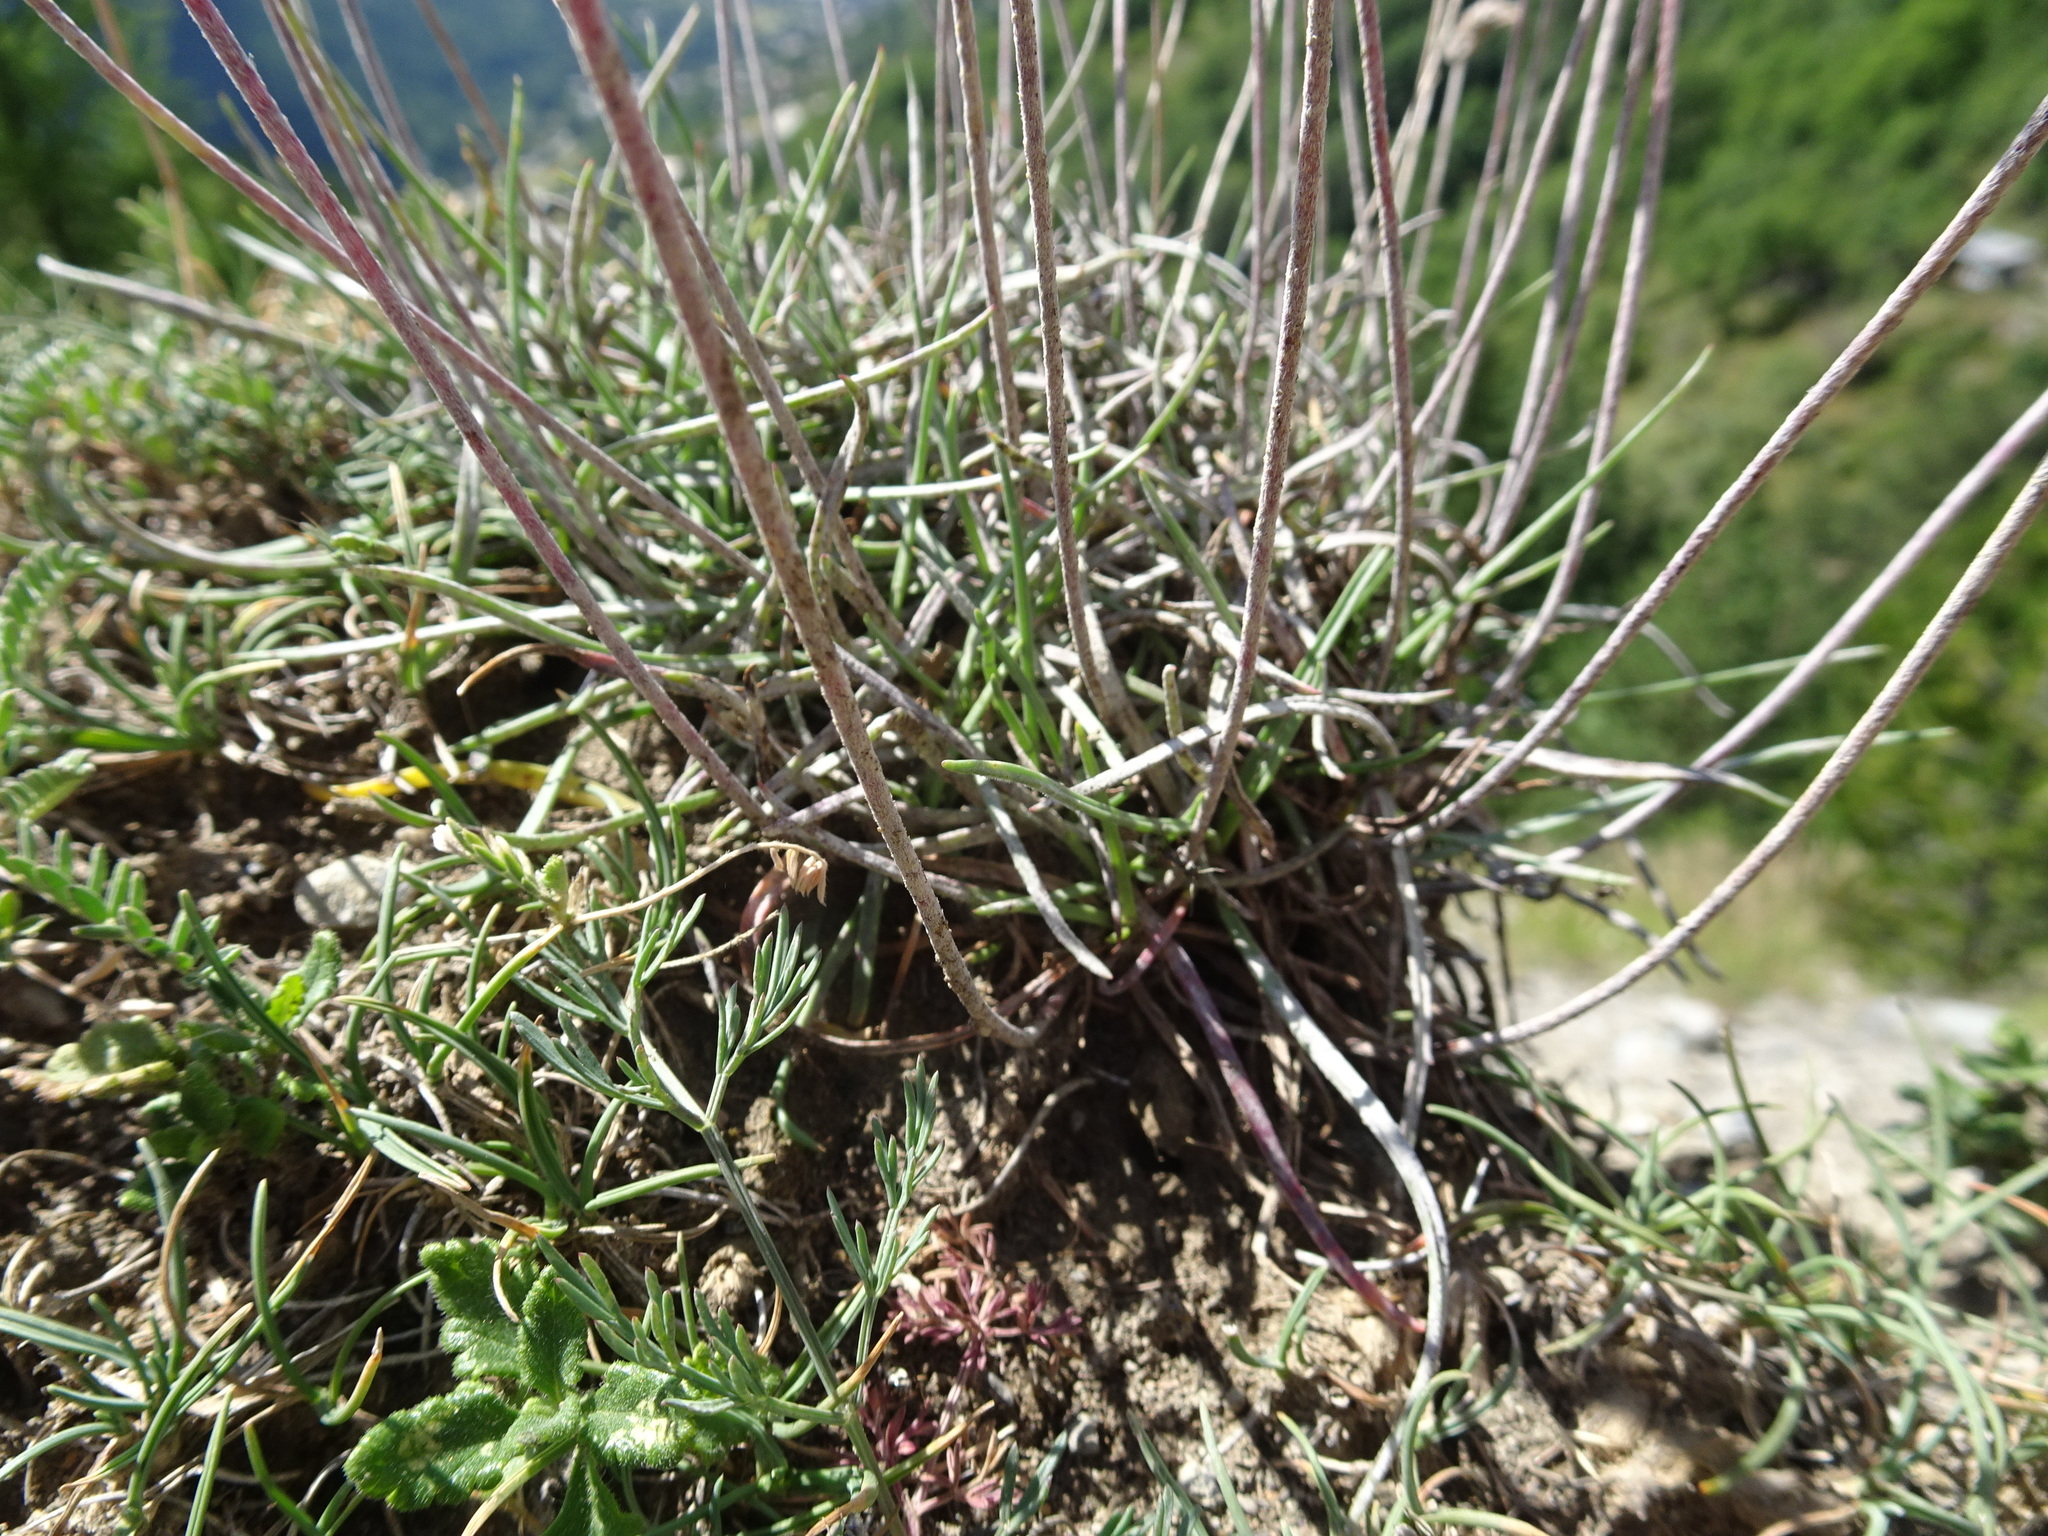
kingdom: Plantae
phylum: Tracheophyta
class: Magnoliopsida
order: Lamiales
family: Plantaginaceae
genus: Plantago
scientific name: Plantago maritima
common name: Sea plantain
